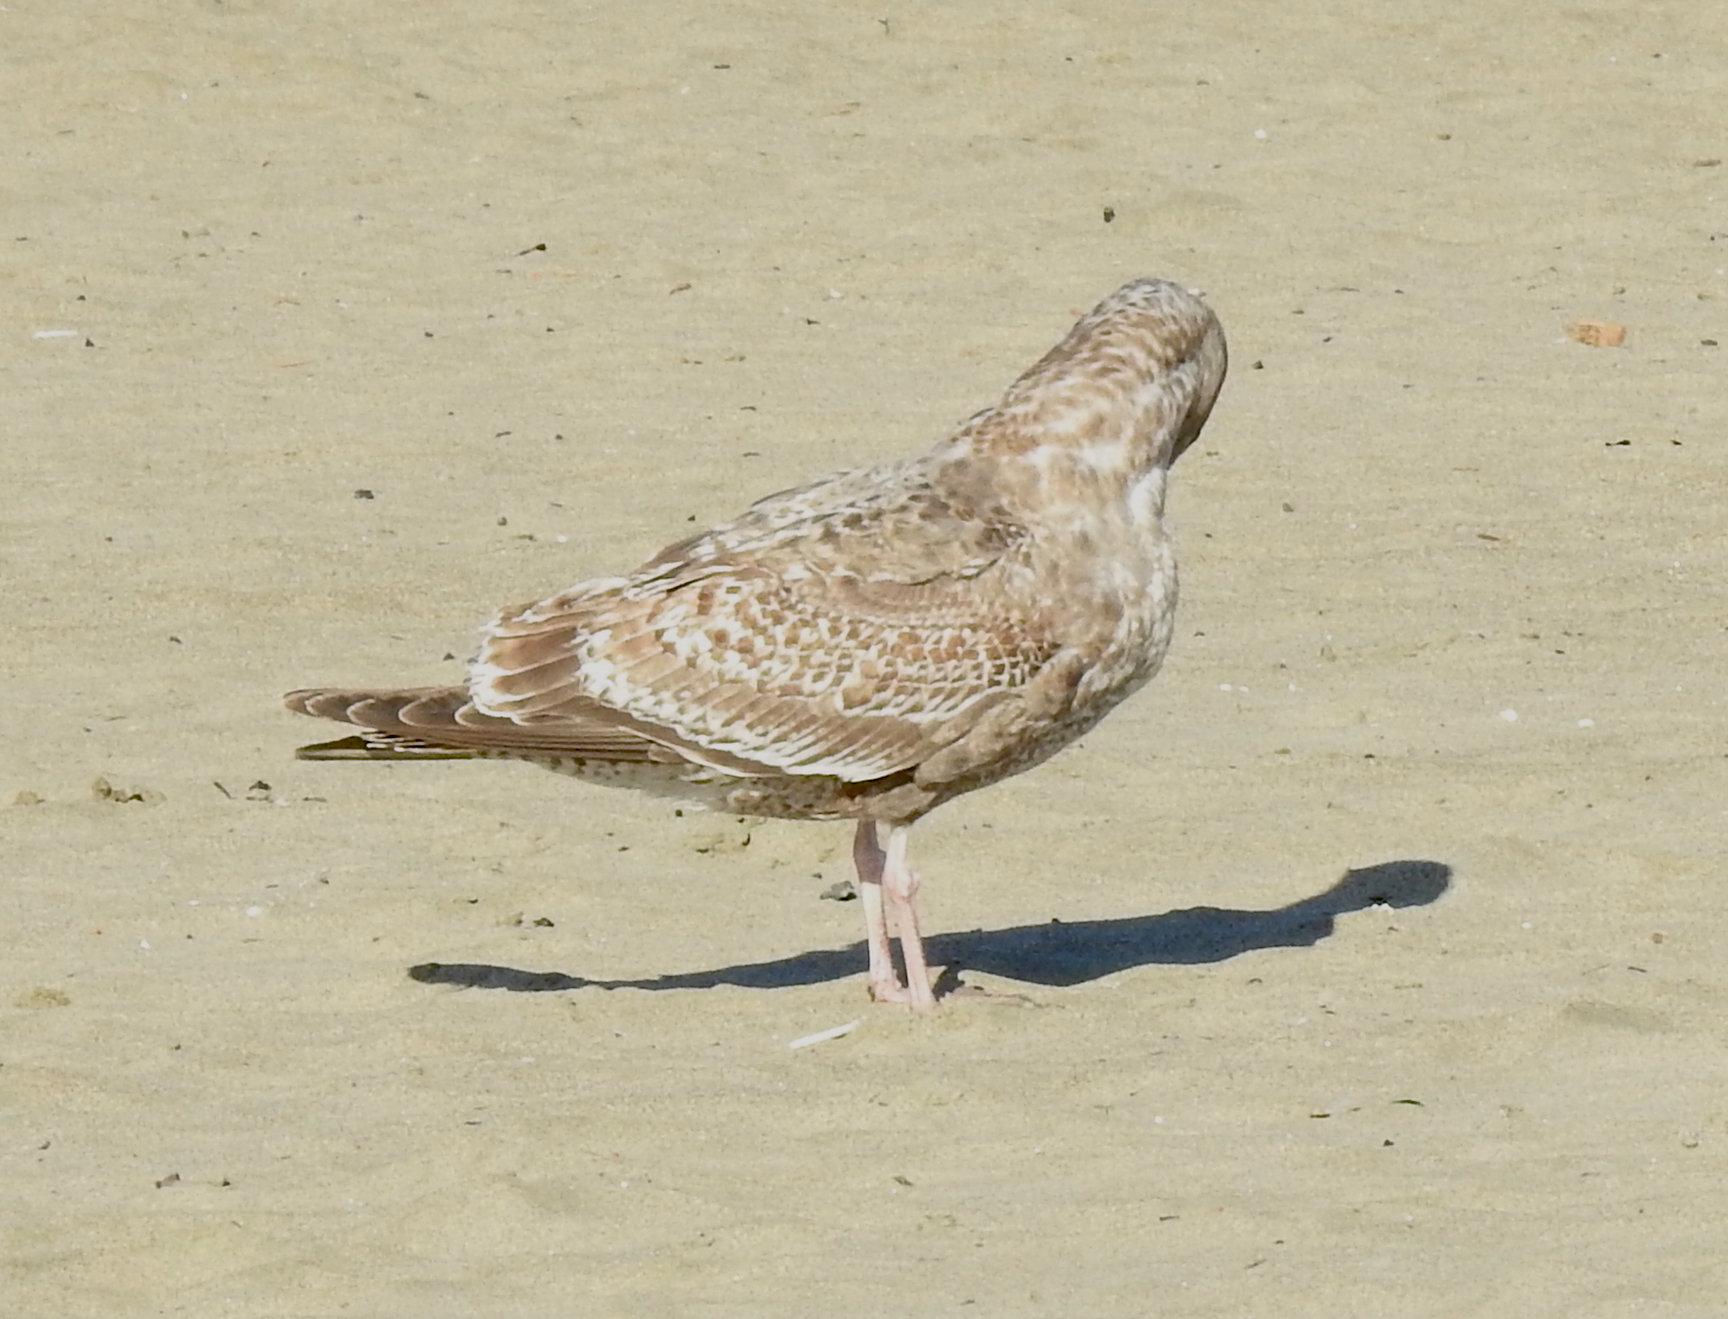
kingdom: Animalia
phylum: Chordata
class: Aves
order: Charadriiformes
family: Laridae
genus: Larus
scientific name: Larus occidentalis
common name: Western gull
